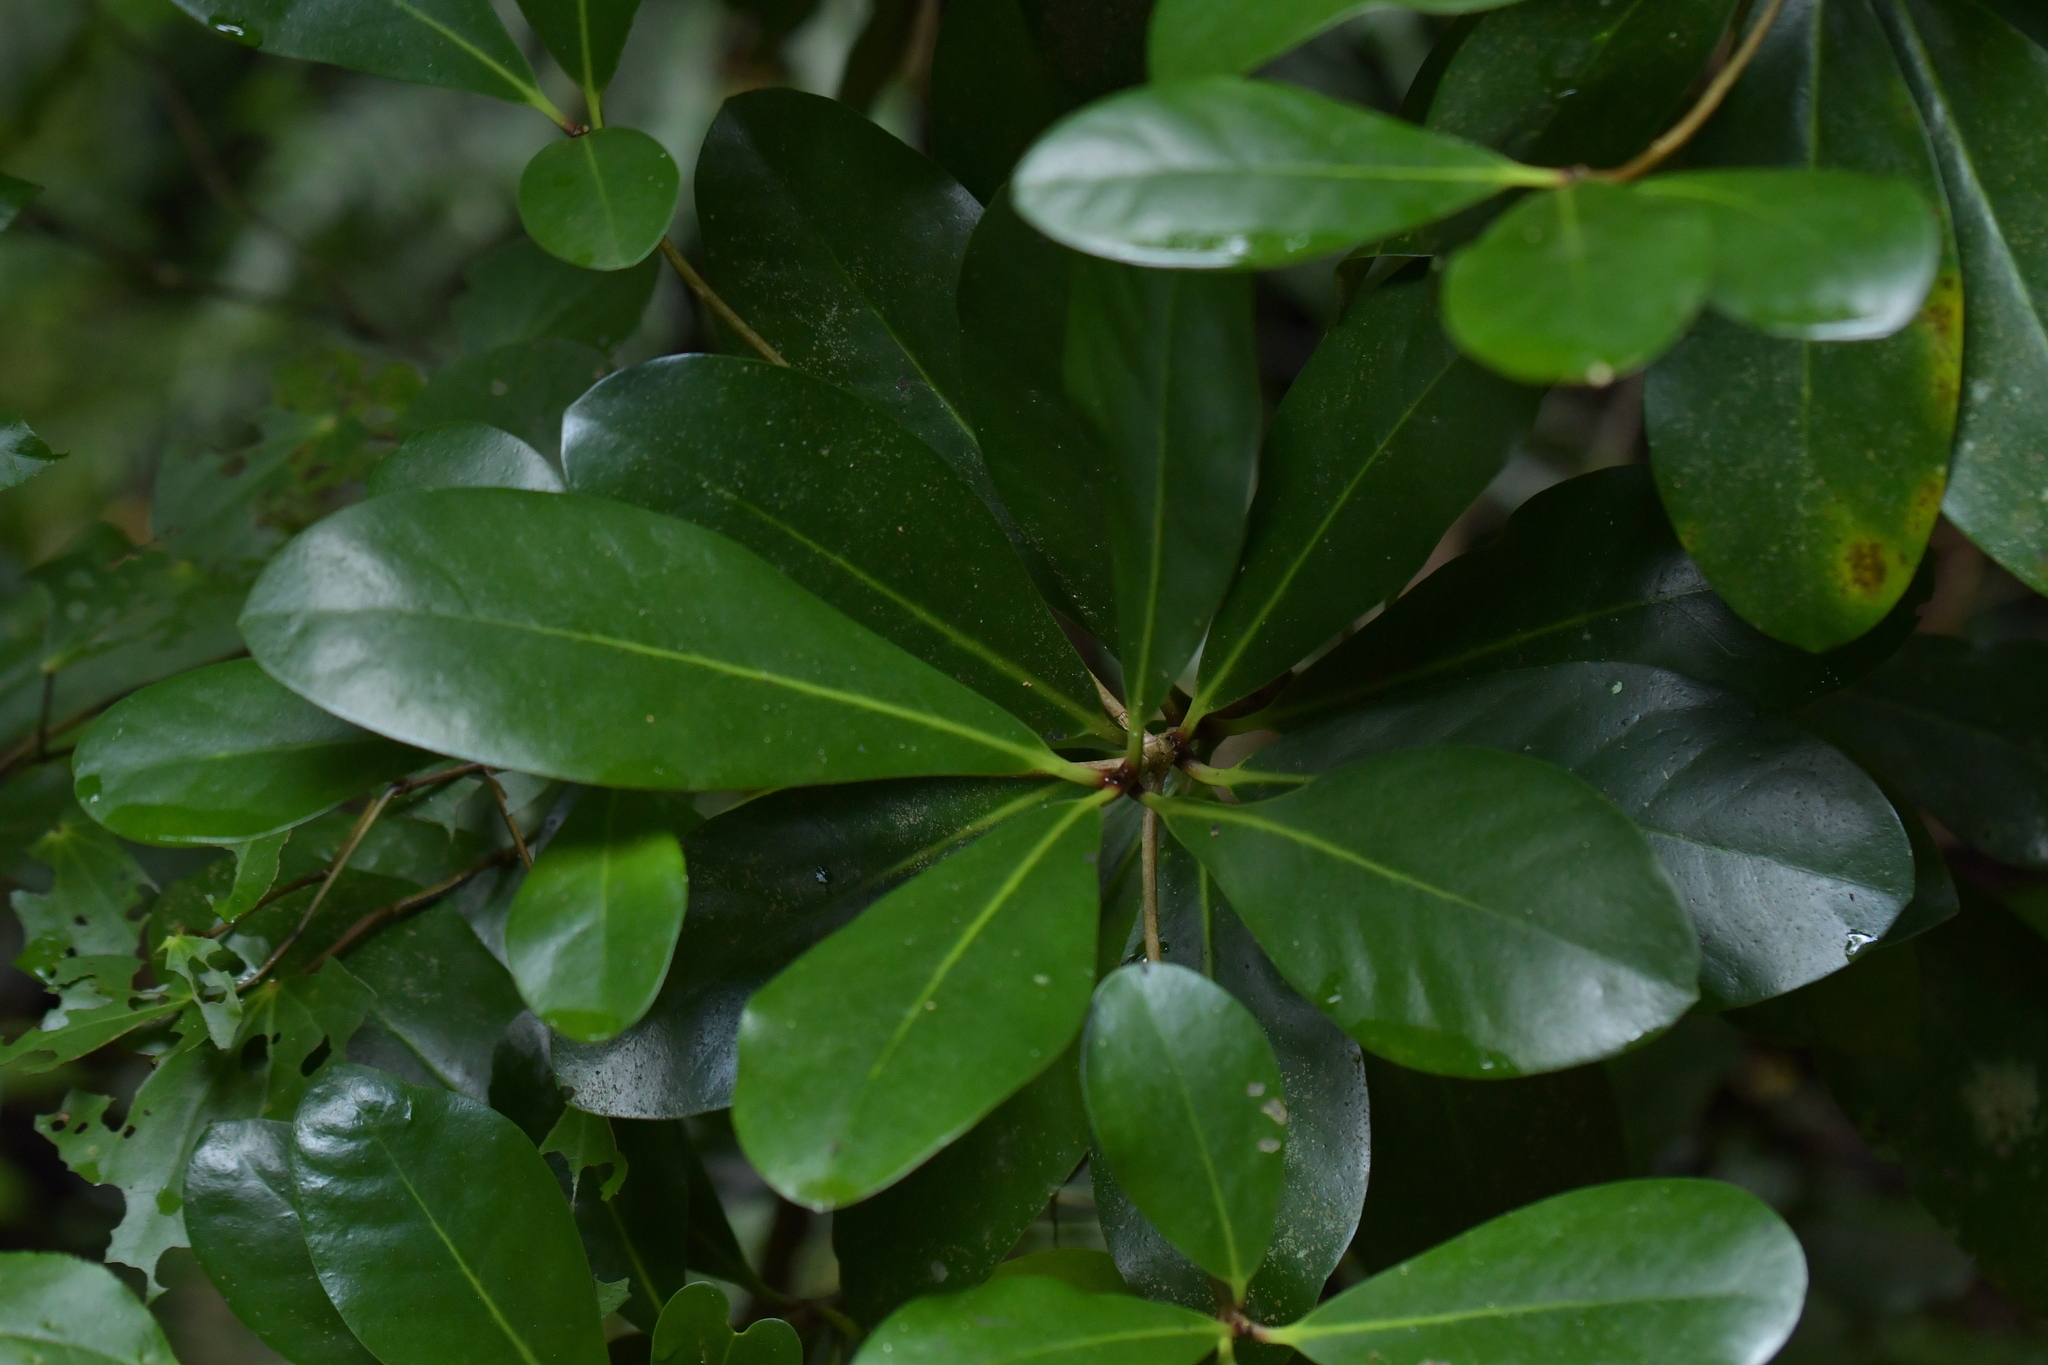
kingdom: Plantae
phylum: Tracheophyta
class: Magnoliopsida
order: Cucurbitales
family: Corynocarpaceae
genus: Corynocarpus
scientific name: Corynocarpus laevigatus
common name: New zealand laurel
